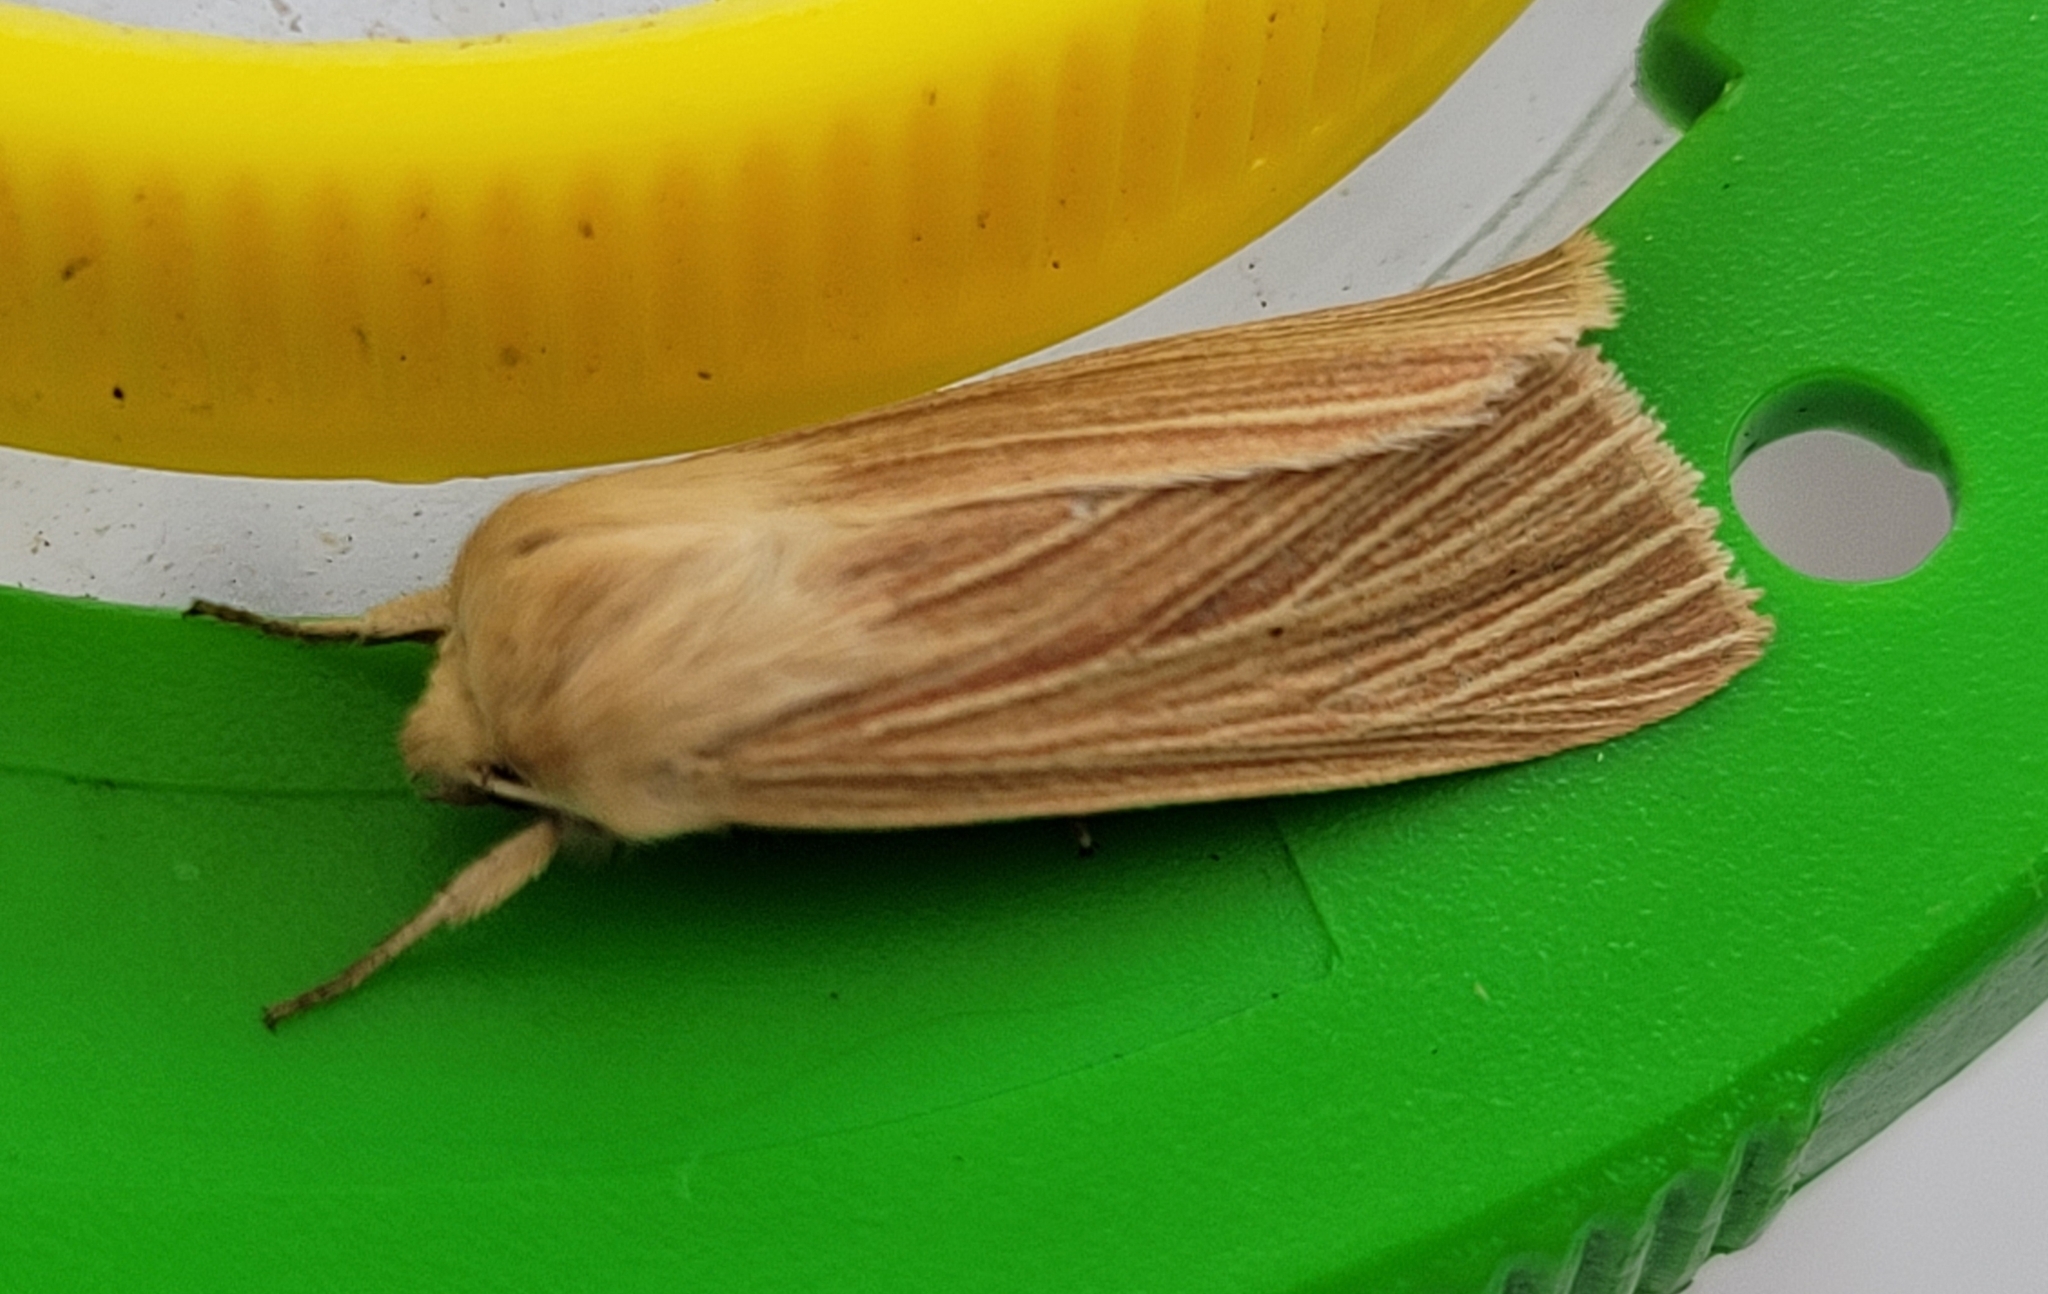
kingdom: Animalia
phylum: Arthropoda
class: Insecta
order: Lepidoptera
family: Noctuidae
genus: Mythimna
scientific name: Mythimna pallens
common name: Common wainscot
